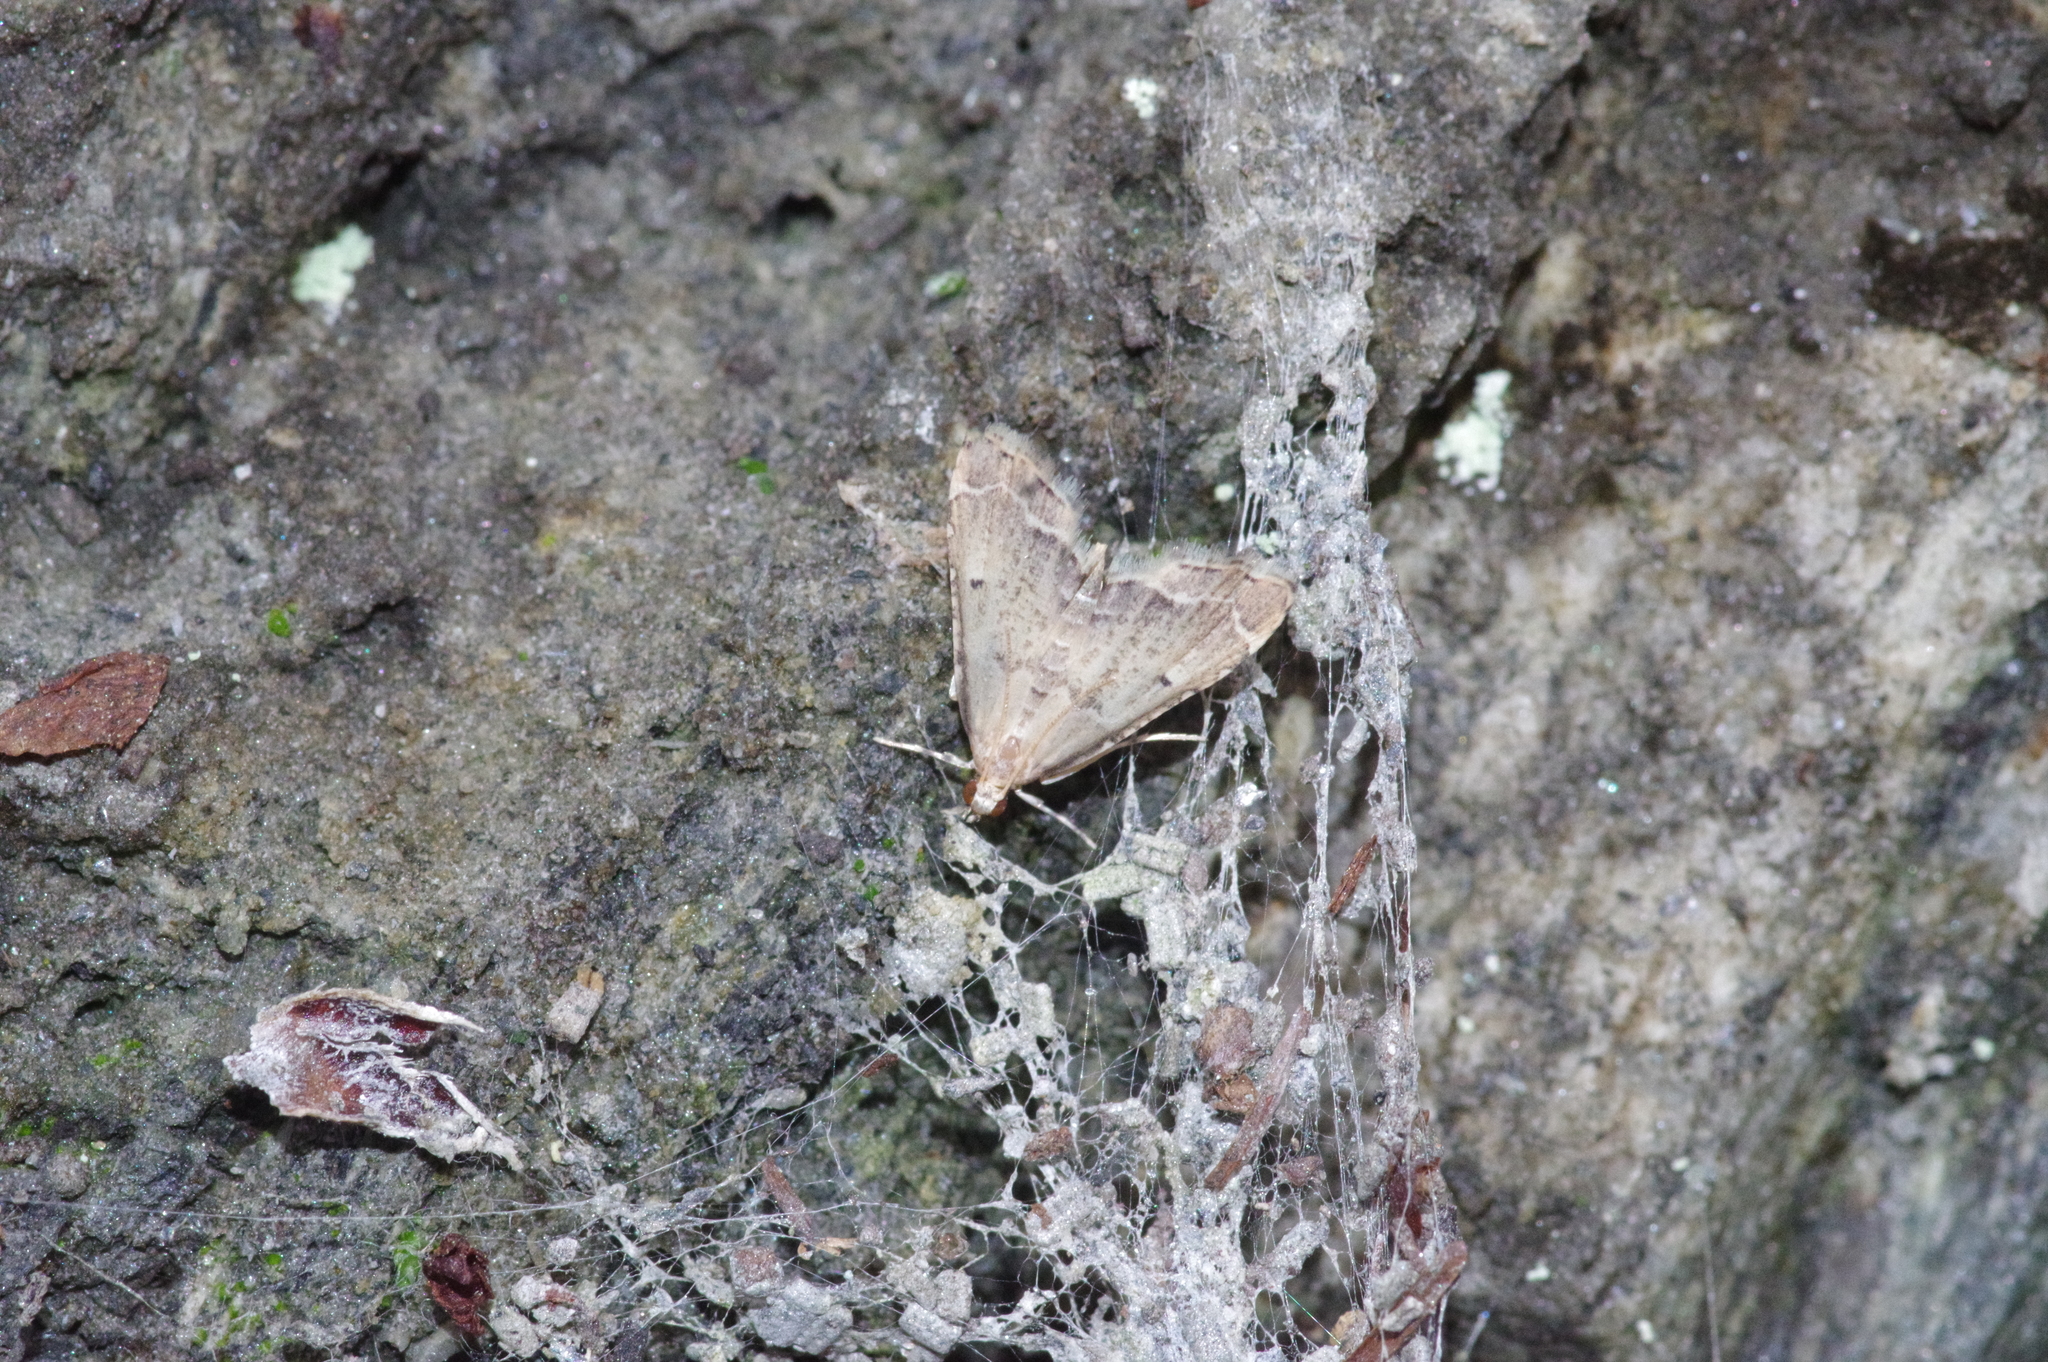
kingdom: Animalia
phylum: Arthropoda
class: Insecta
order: Lepidoptera
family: Crambidae
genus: Diplopseustis
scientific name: Diplopseustis perieresalis
